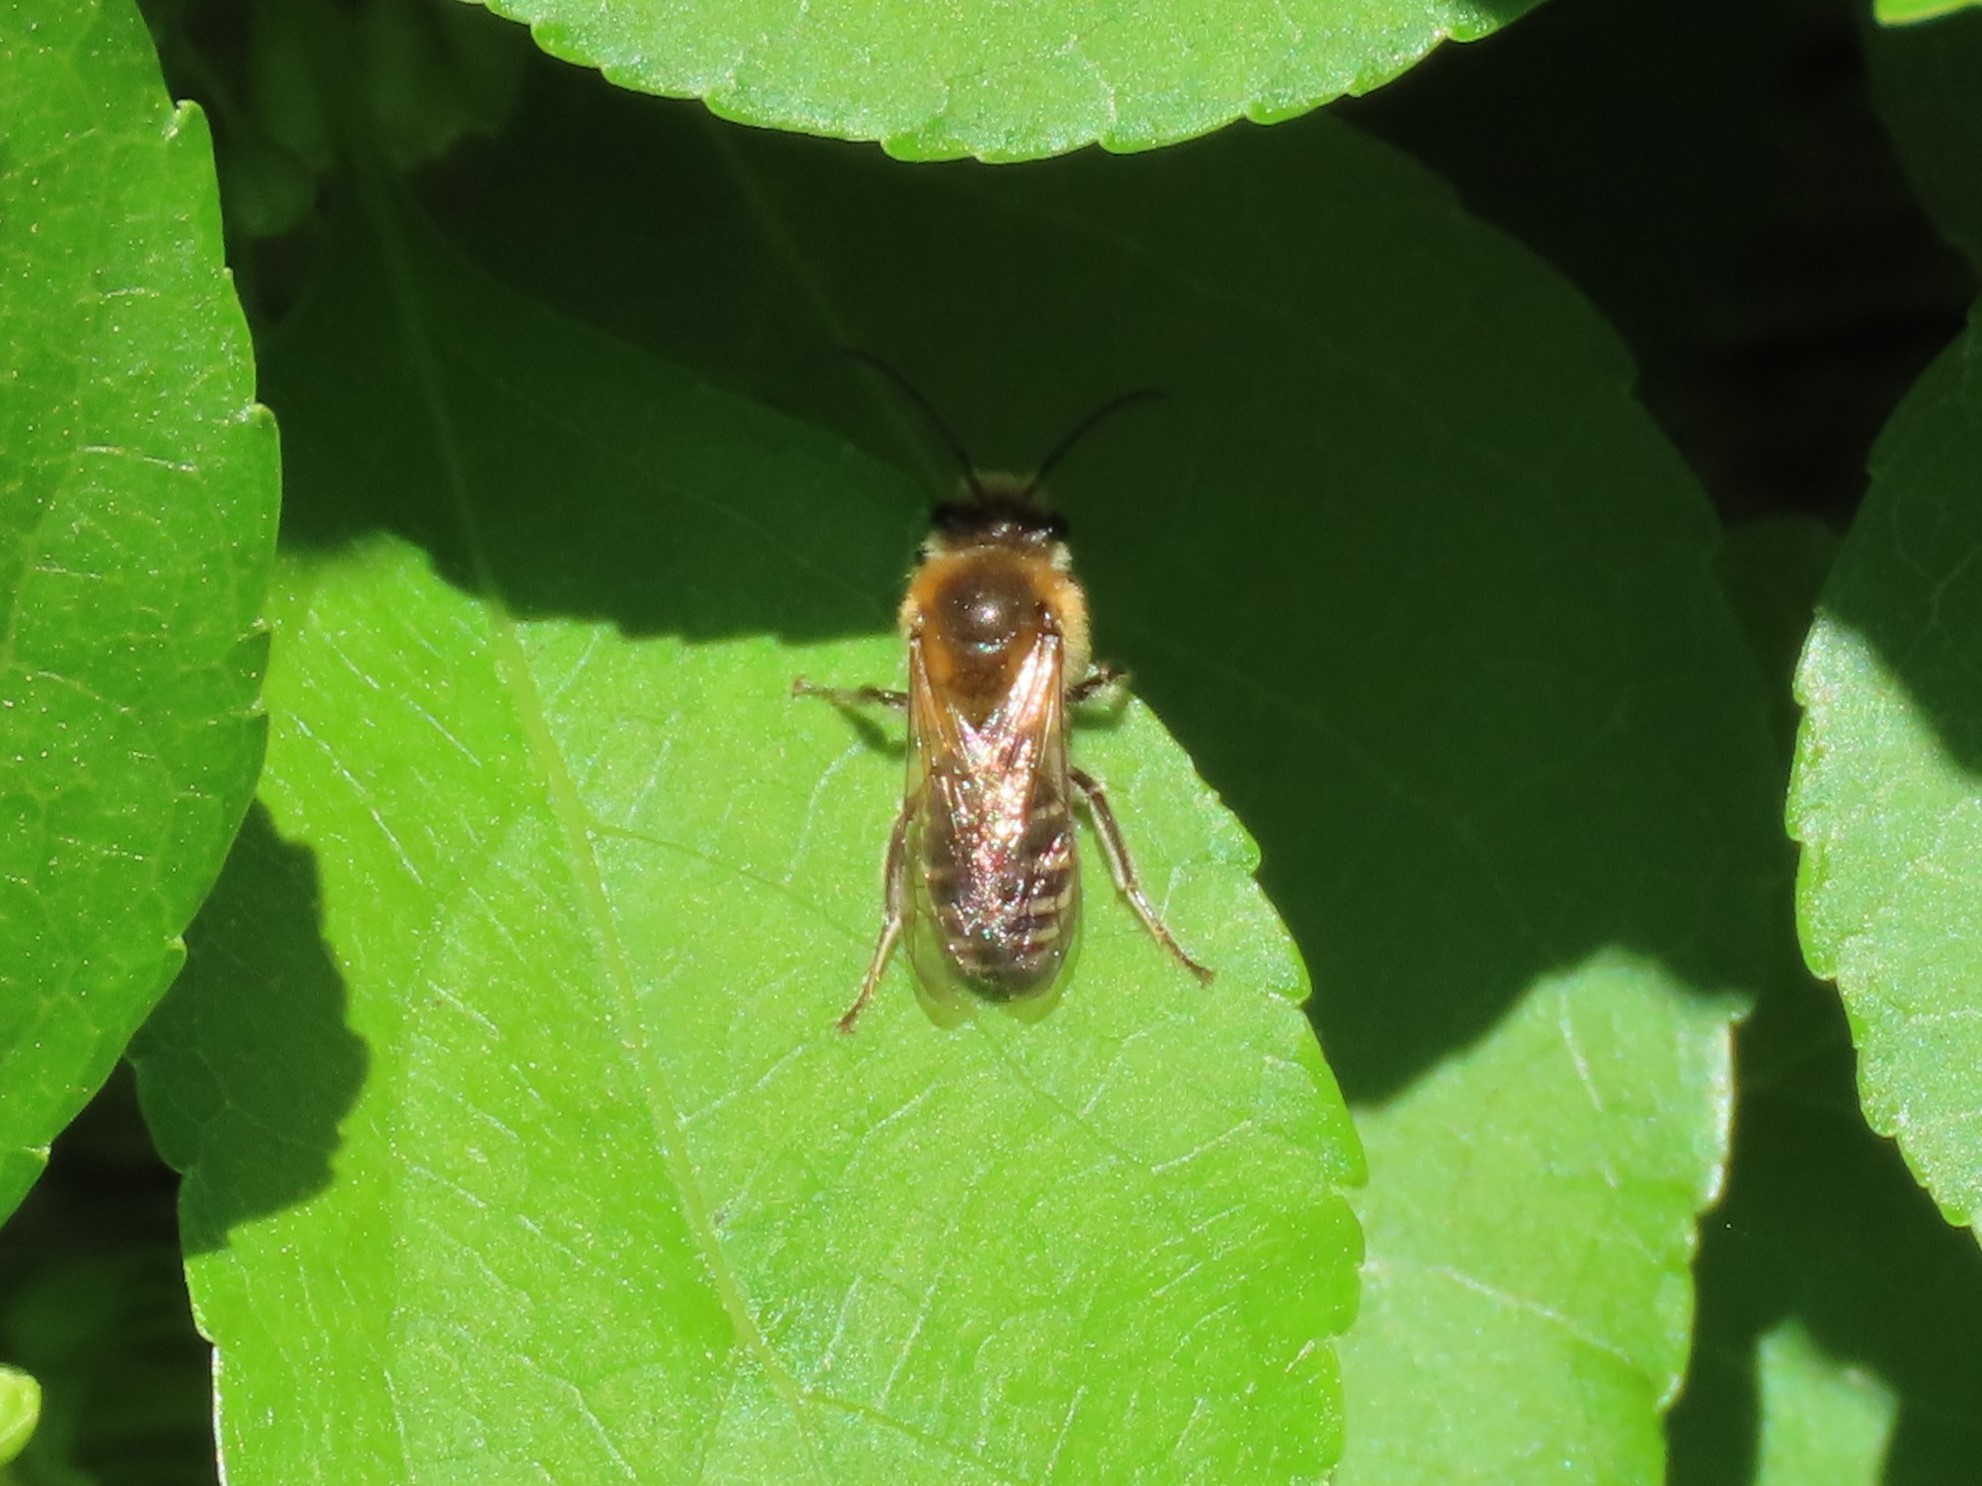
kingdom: Animalia
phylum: Arthropoda
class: Insecta
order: Hymenoptera
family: Colletidae
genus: Colletes
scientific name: Colletes thoracicus
